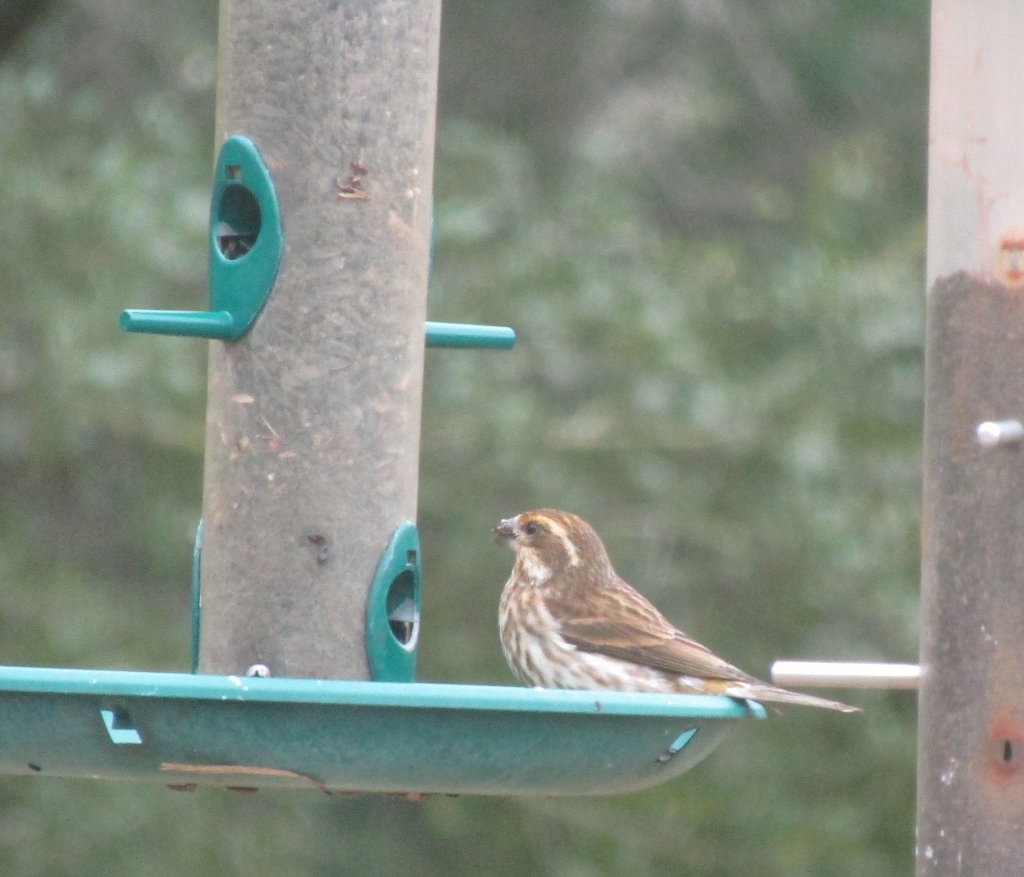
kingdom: Animalia
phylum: Chordata
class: Aves
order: Passeriformes
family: Fringillidae
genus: Haemorhous
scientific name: Haemorhous purpureus
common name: Purple finch
